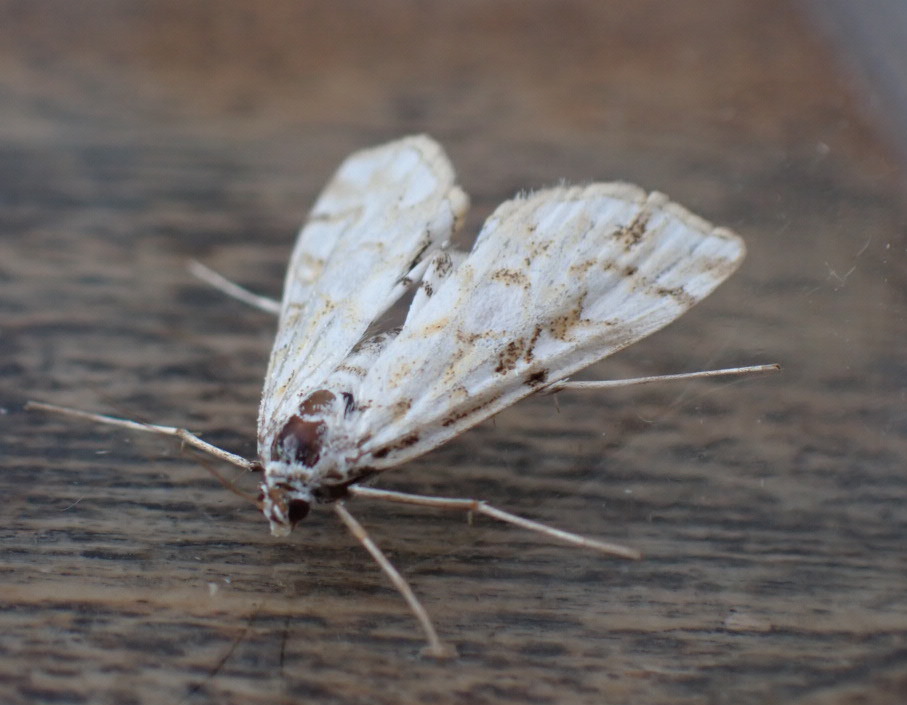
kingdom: Animalia
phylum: Arthropoda
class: Insecta
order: Lepidoptera
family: Crambidae
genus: Elophila
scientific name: Elophila nymphaeata
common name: Brown china-mark
